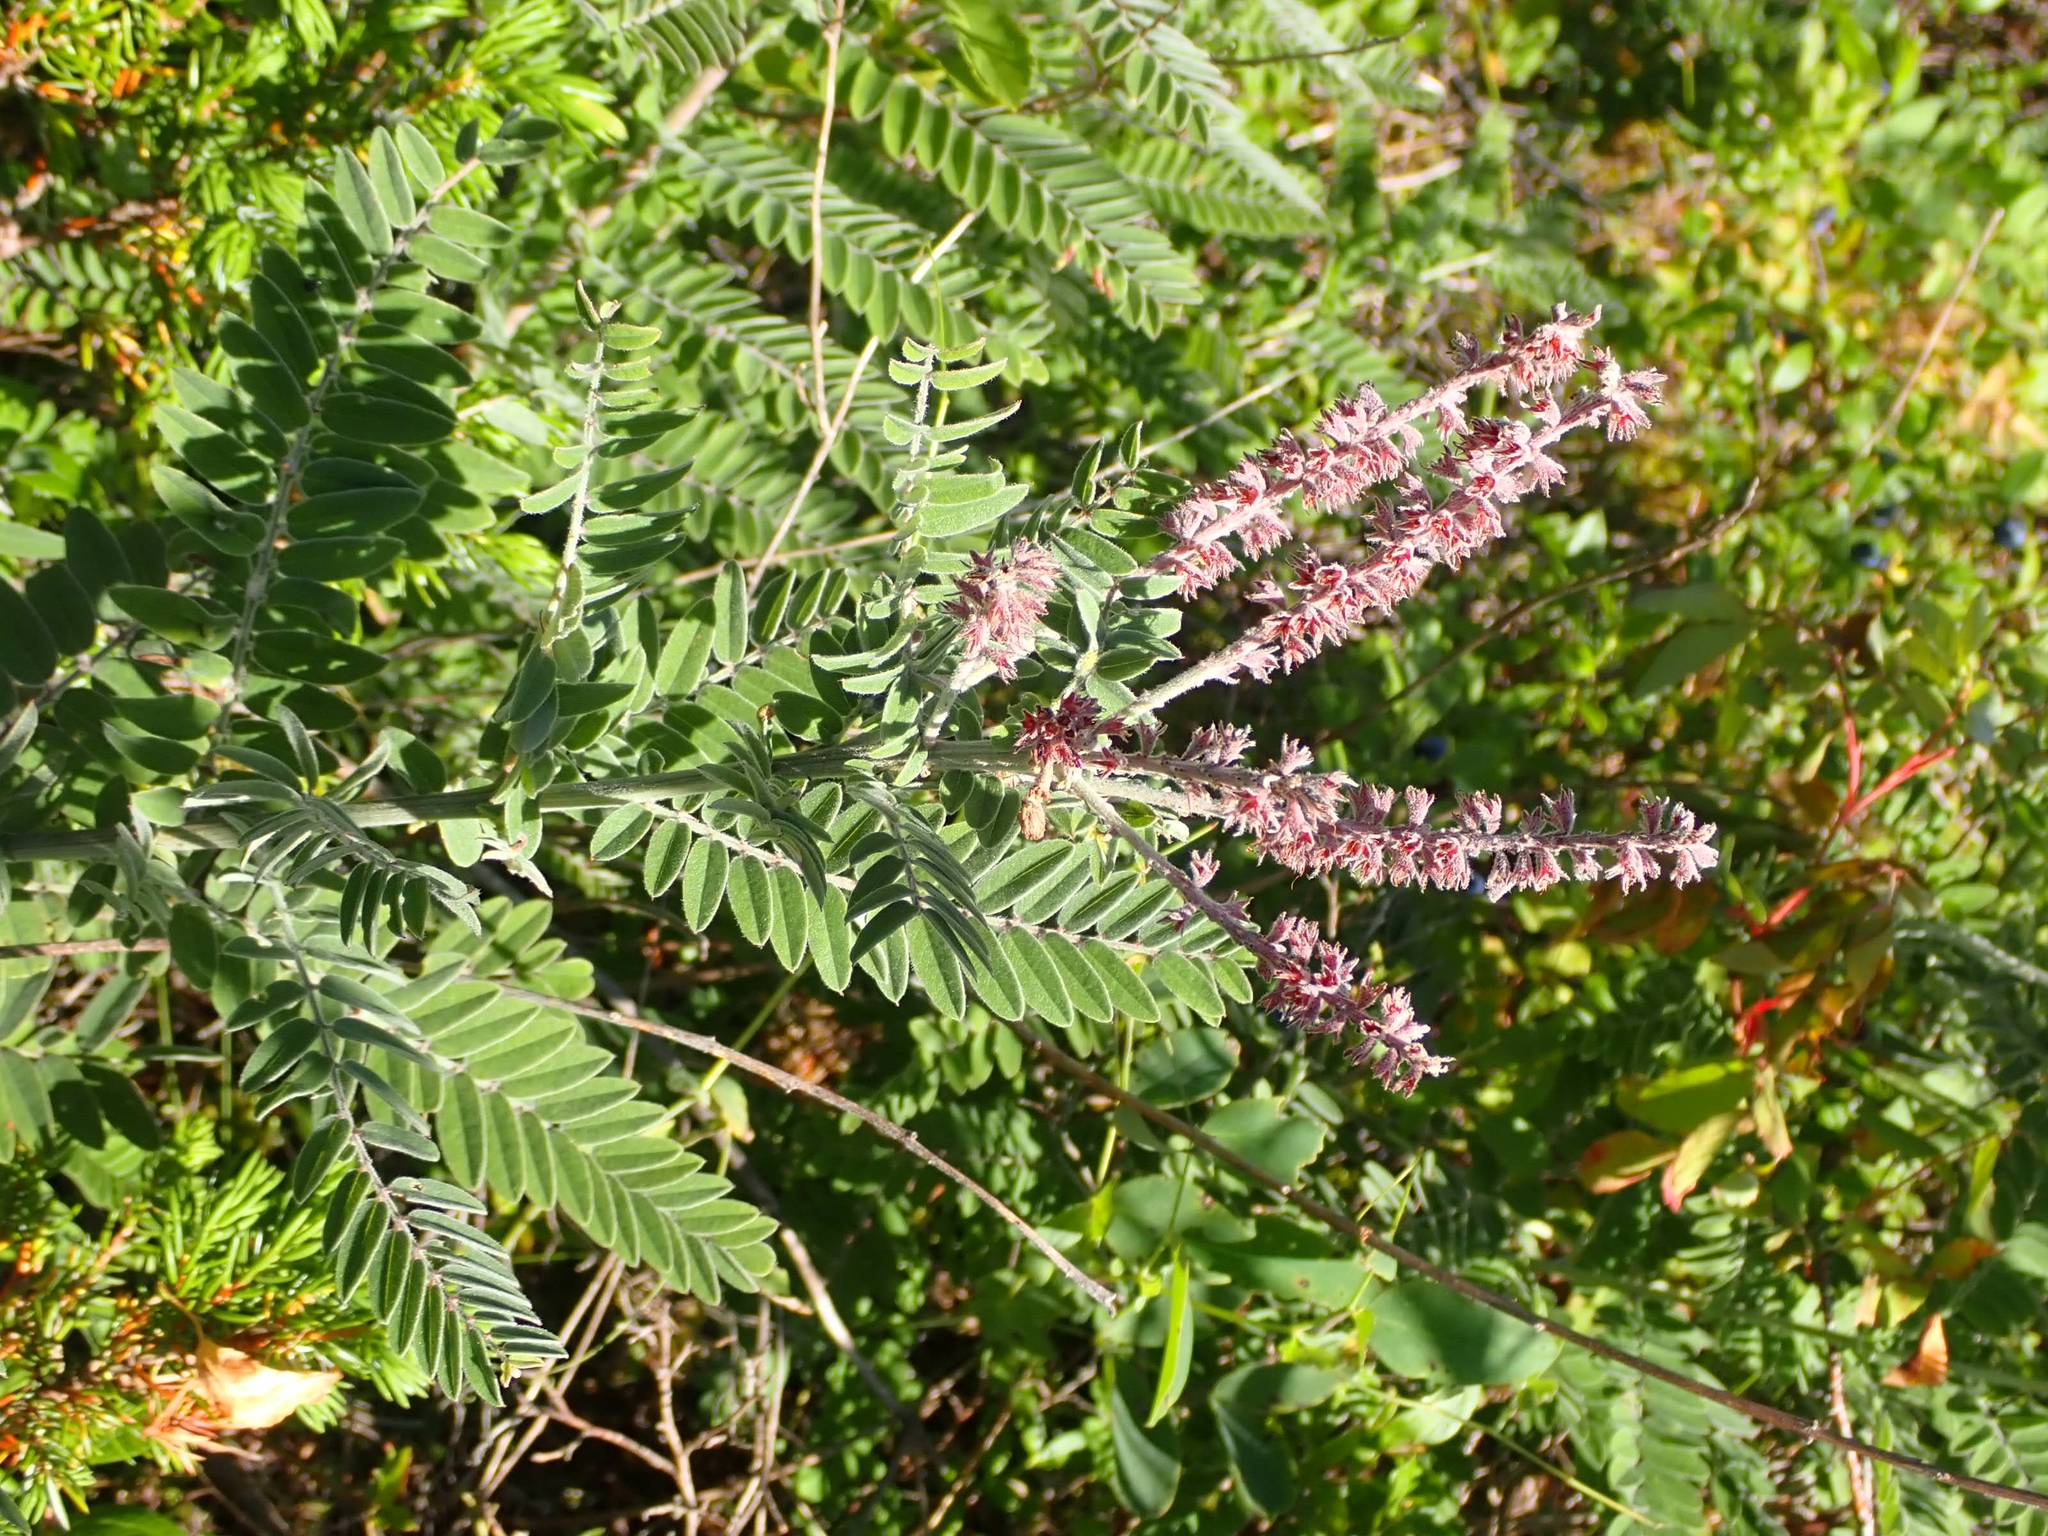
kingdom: Plantae
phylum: Tracheophyta
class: Magnoliopsida
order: Fabales
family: Fabaceae
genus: Amorpha
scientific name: Amorpha canescens
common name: Leadplant
